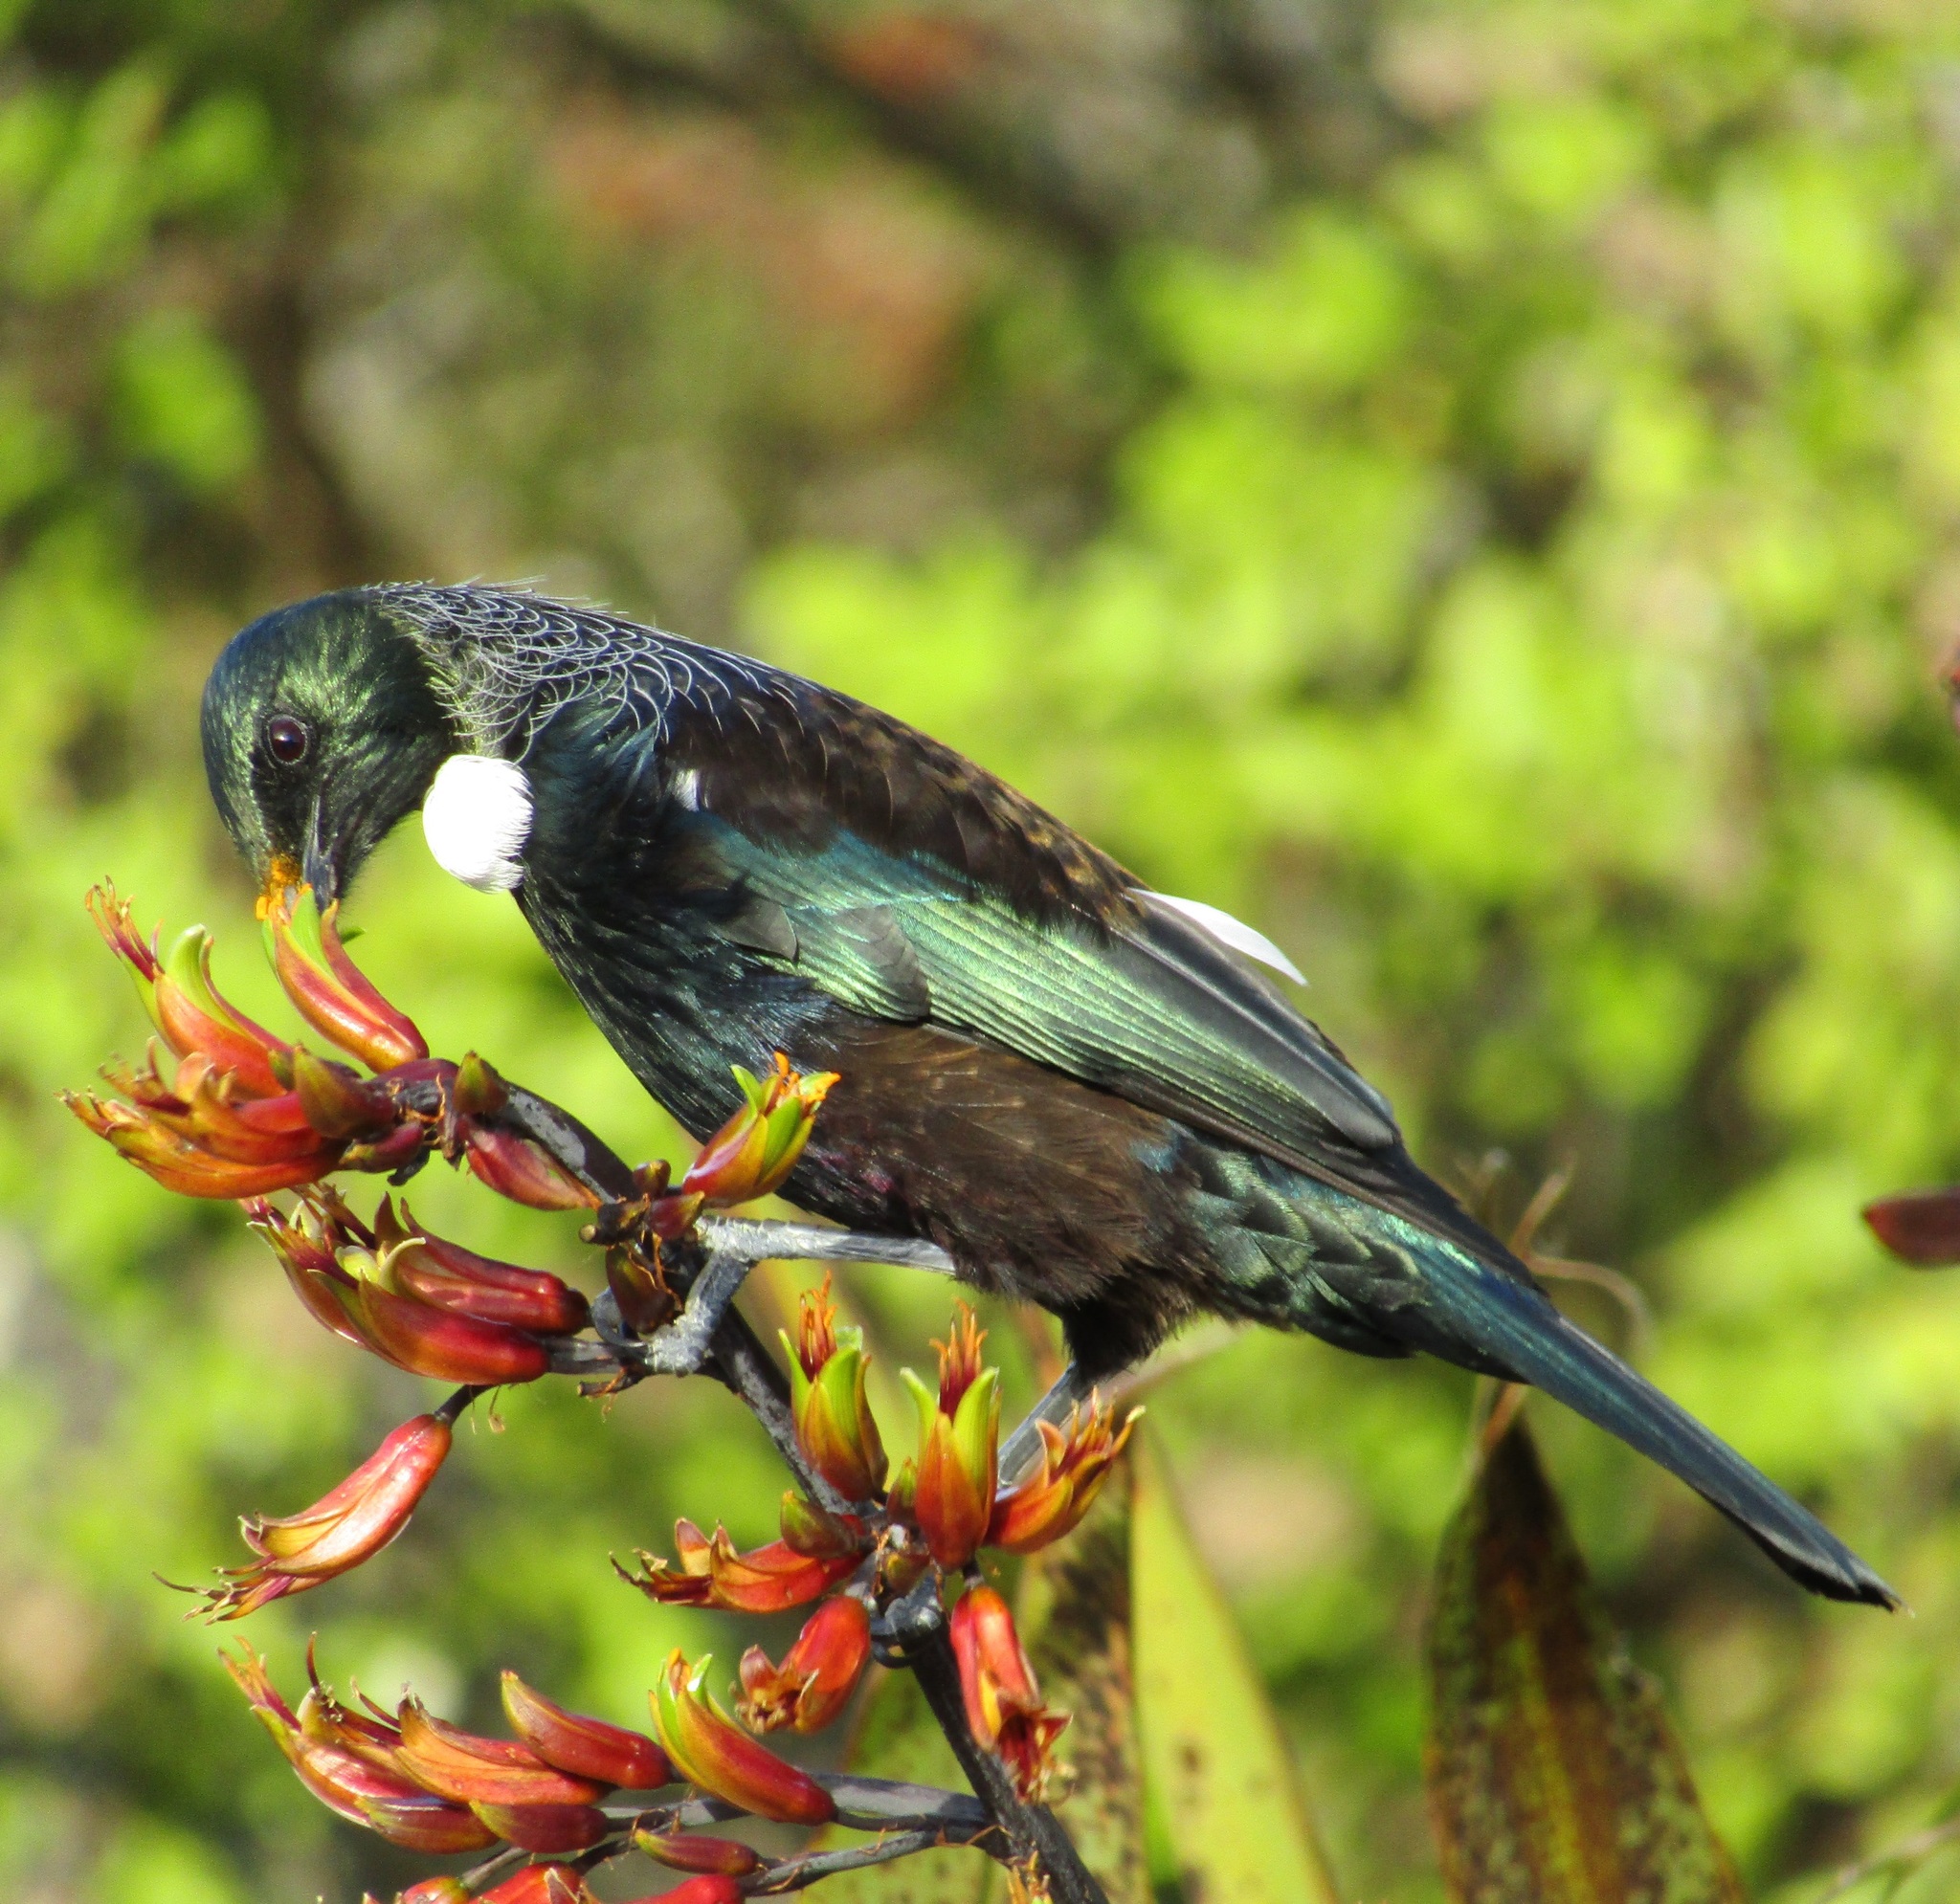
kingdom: Animalia
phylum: Chordata
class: Aves
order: Passeriformes
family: Meliphagidae
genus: Prosthemadera
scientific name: Prosthemadera novaeseelandiae
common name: Tui
